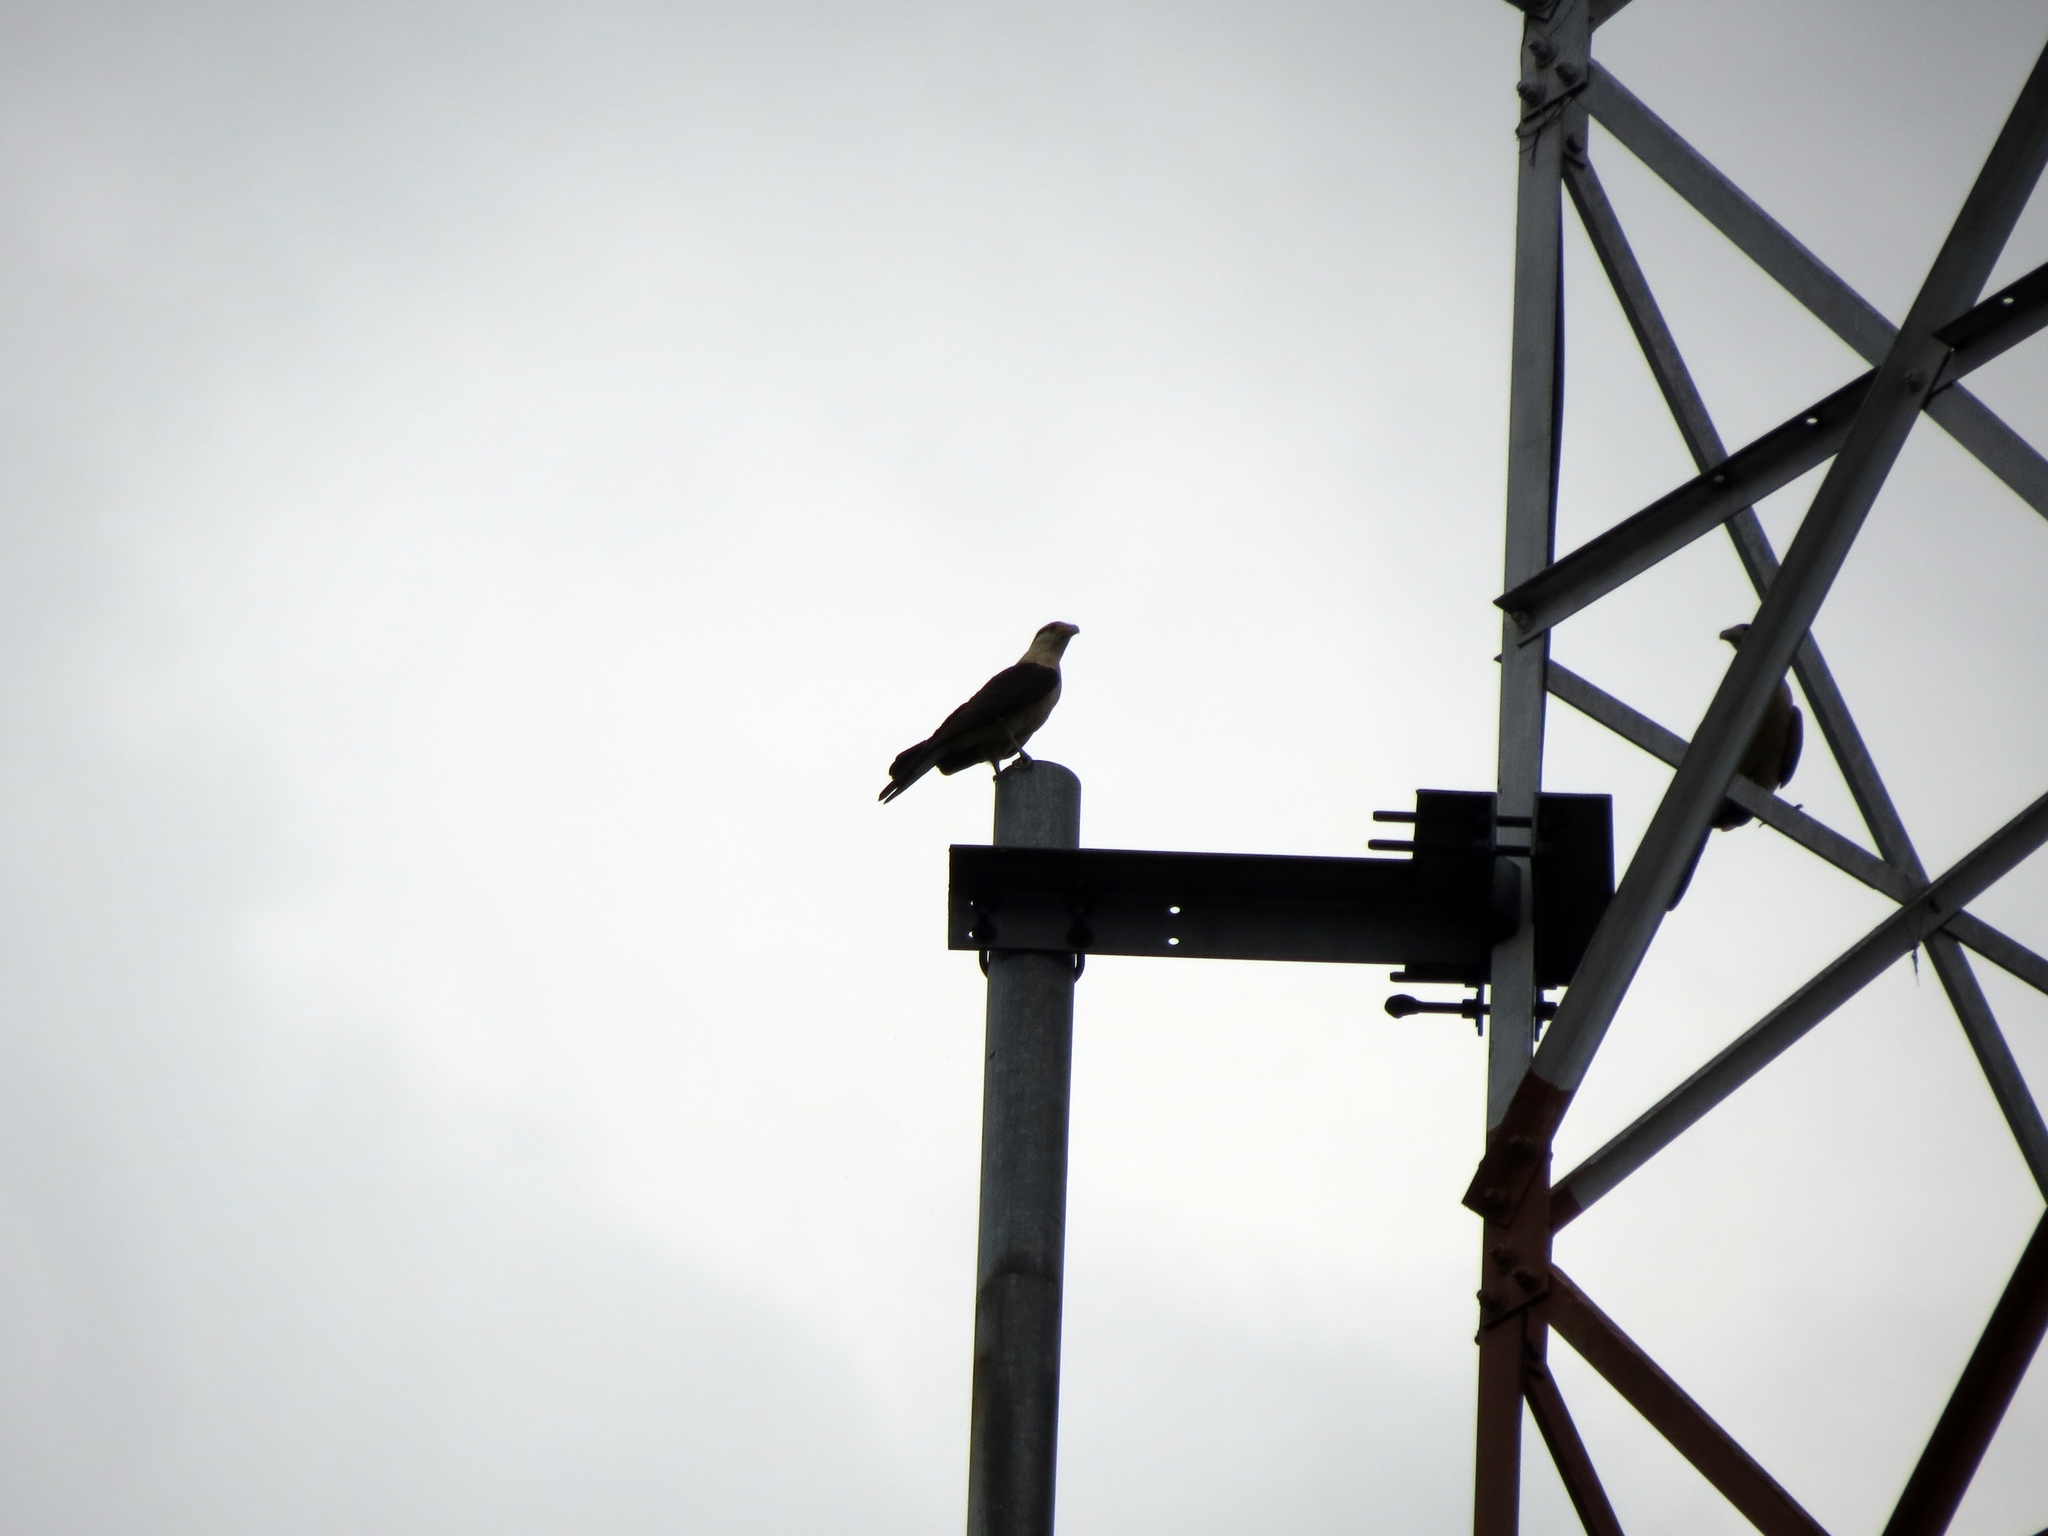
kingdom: Animalia
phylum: Chordata
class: Aves
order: Falconiformes
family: Falconidae
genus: Daptrius
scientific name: Daptrius
